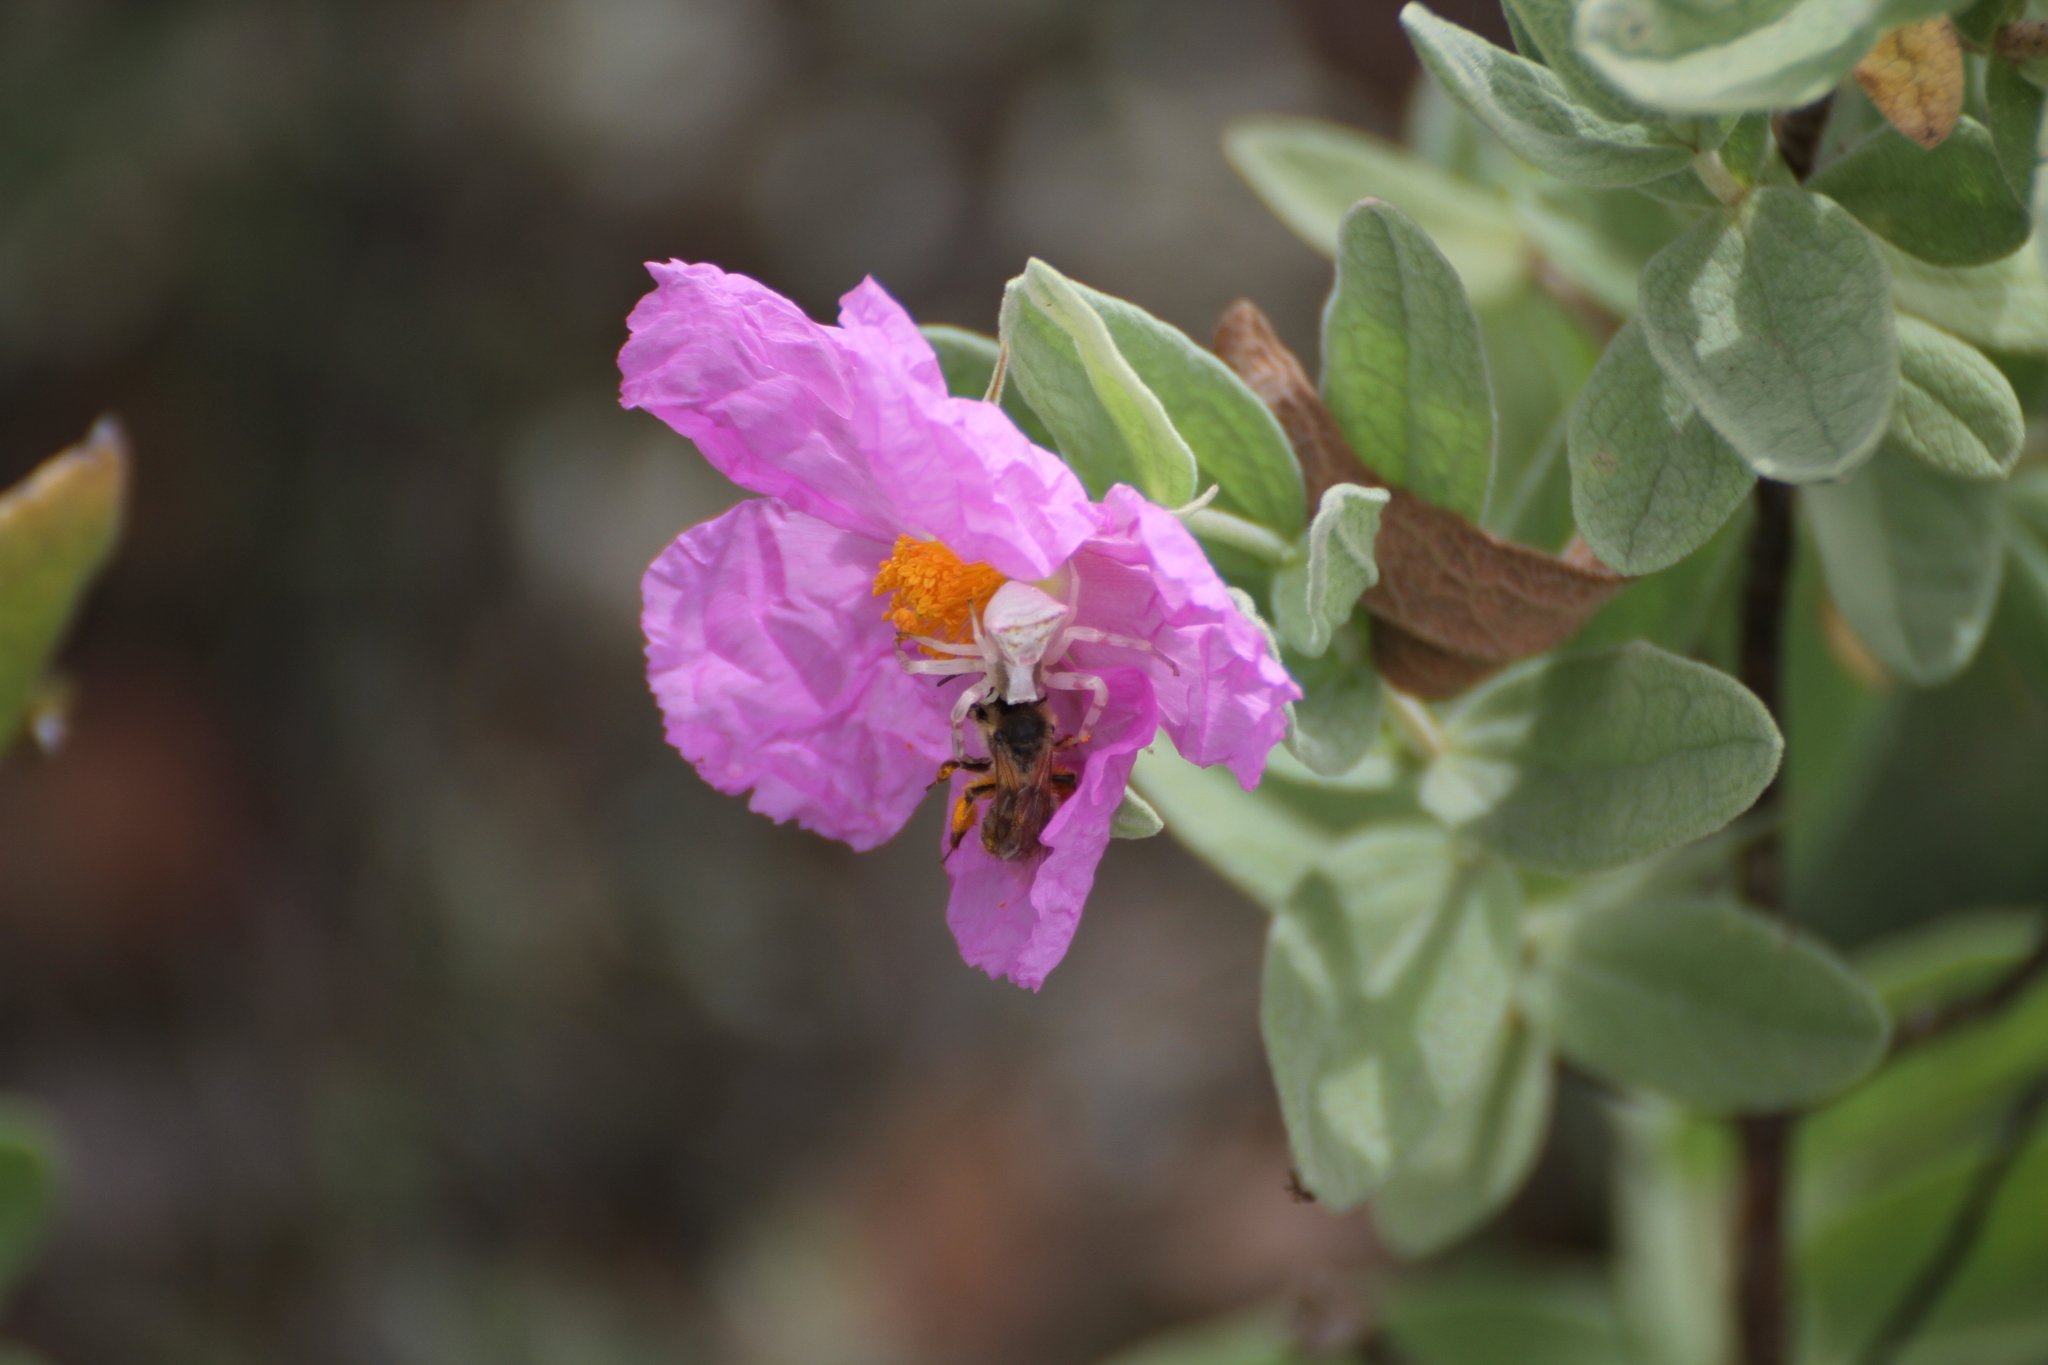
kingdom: Animalia
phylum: Arthropoda
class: Arachnida
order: Araneae
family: Thomisidae
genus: Thomisus
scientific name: Thomisus onustus
